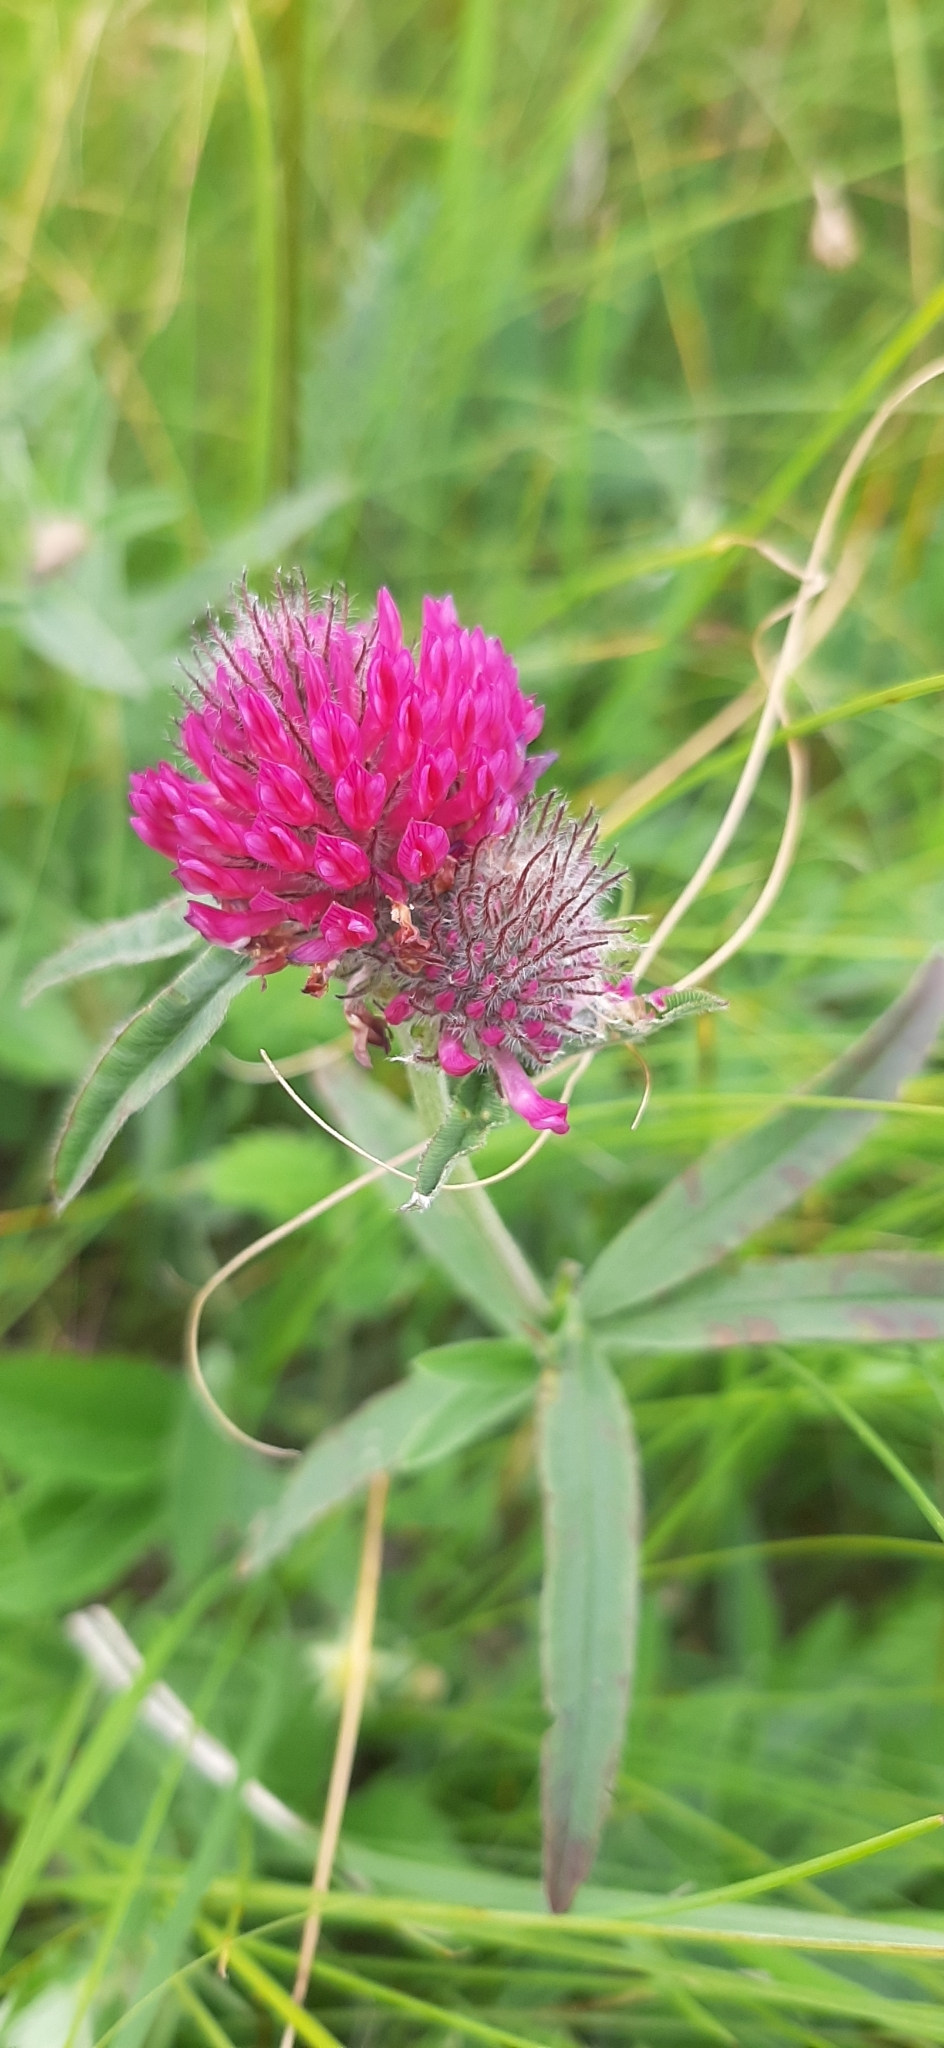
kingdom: Plantae
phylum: Tracheophyta
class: Magnoliopsida
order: Fabales
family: Fabaceae
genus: Trifolium
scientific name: Trifolium alpestre
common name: Owl-head clover
